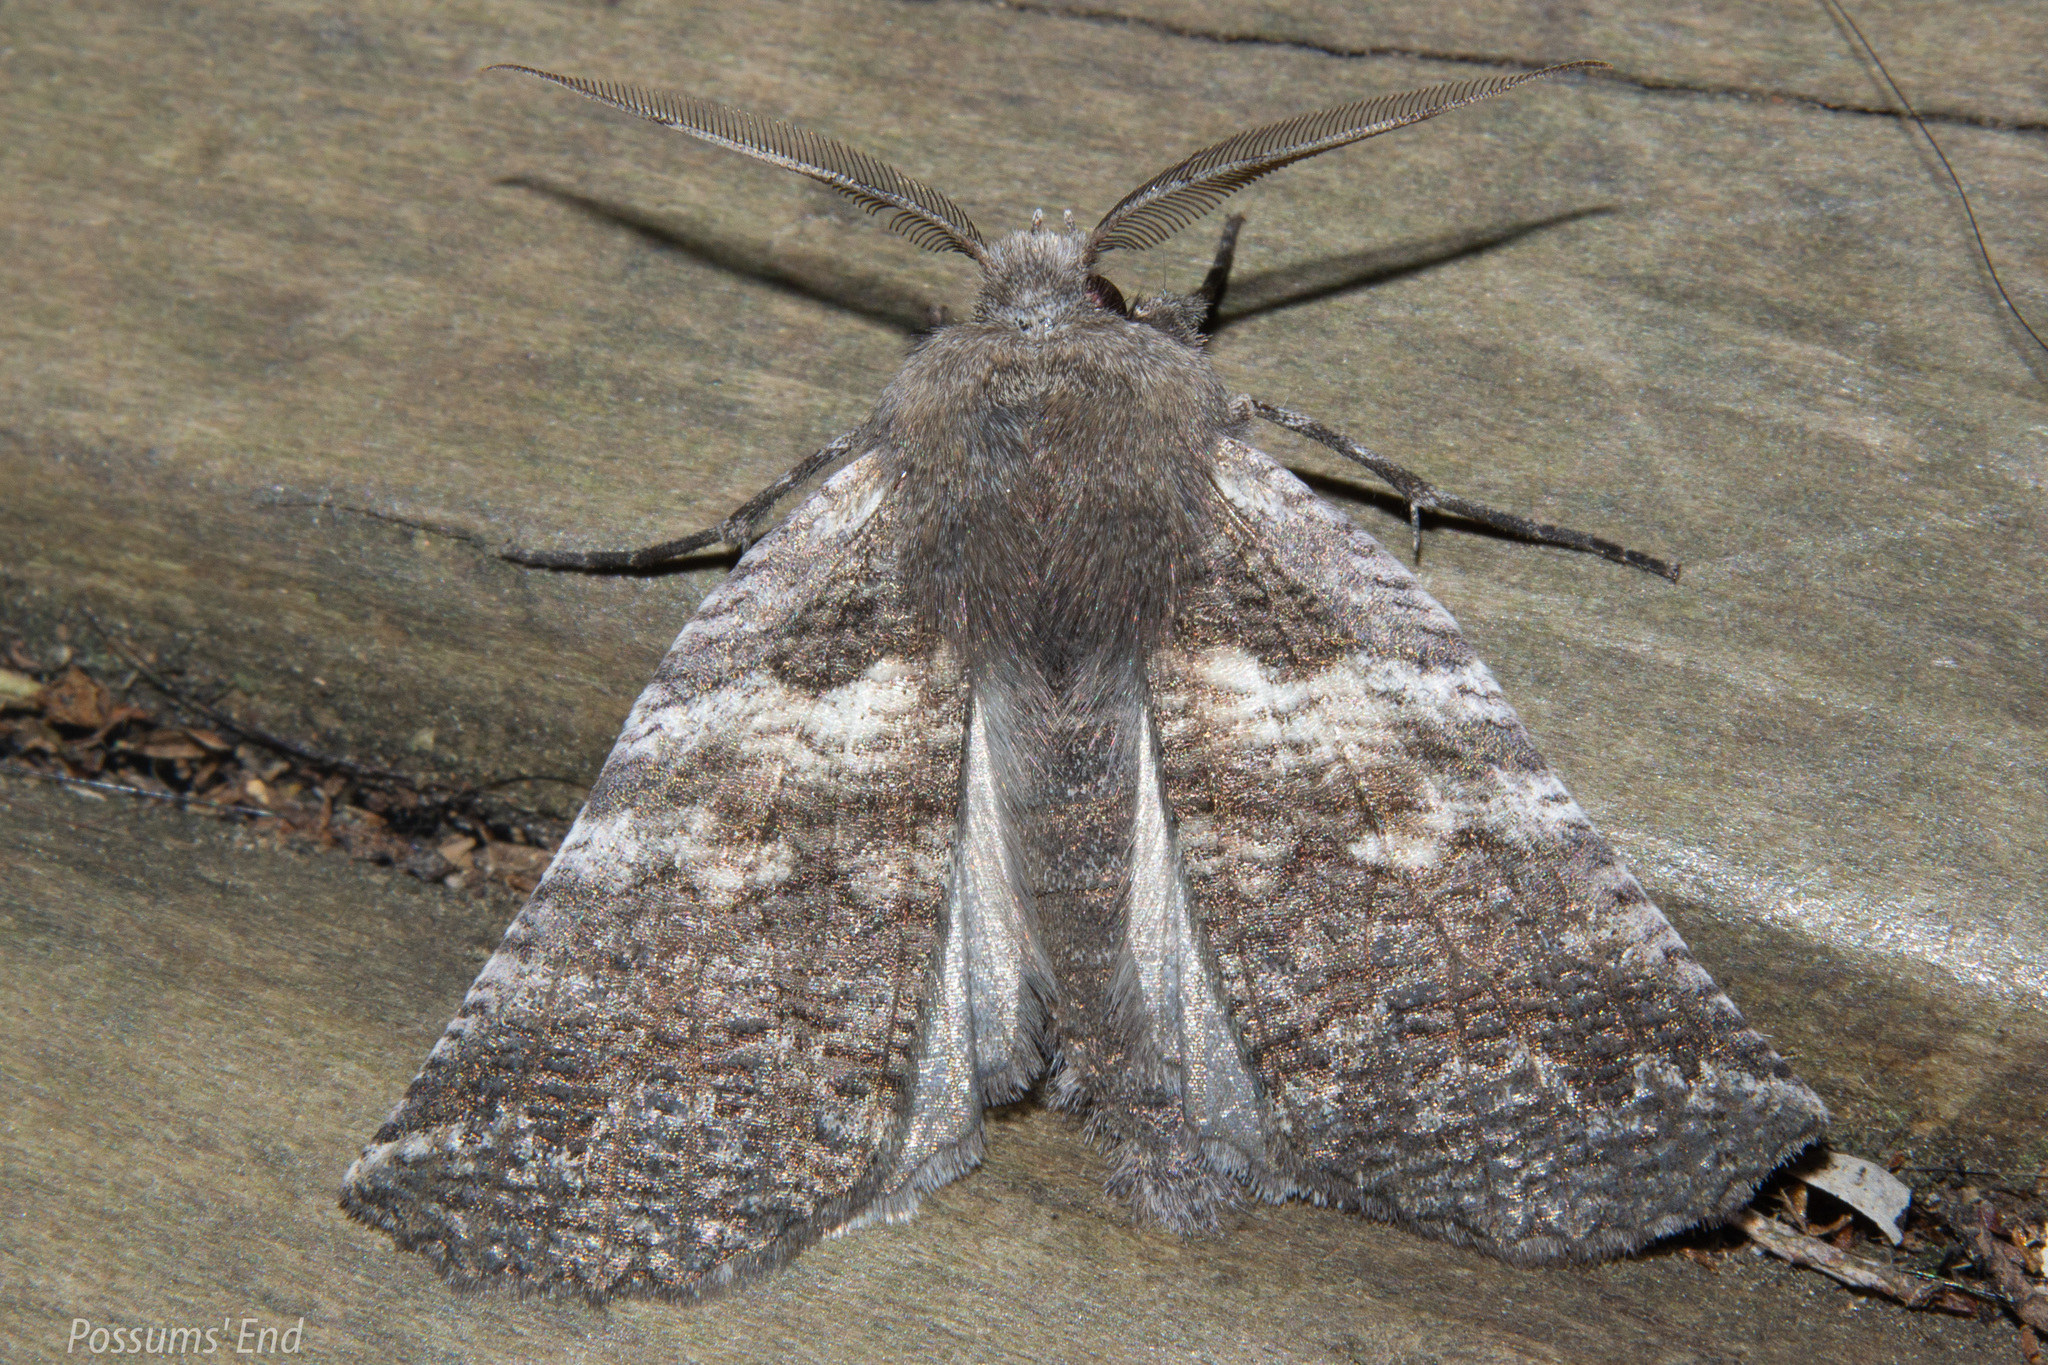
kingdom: Animalia
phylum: Arthropoda
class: Insecta
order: Lepidoptera
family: Geometridae
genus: Declana
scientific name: Declana
